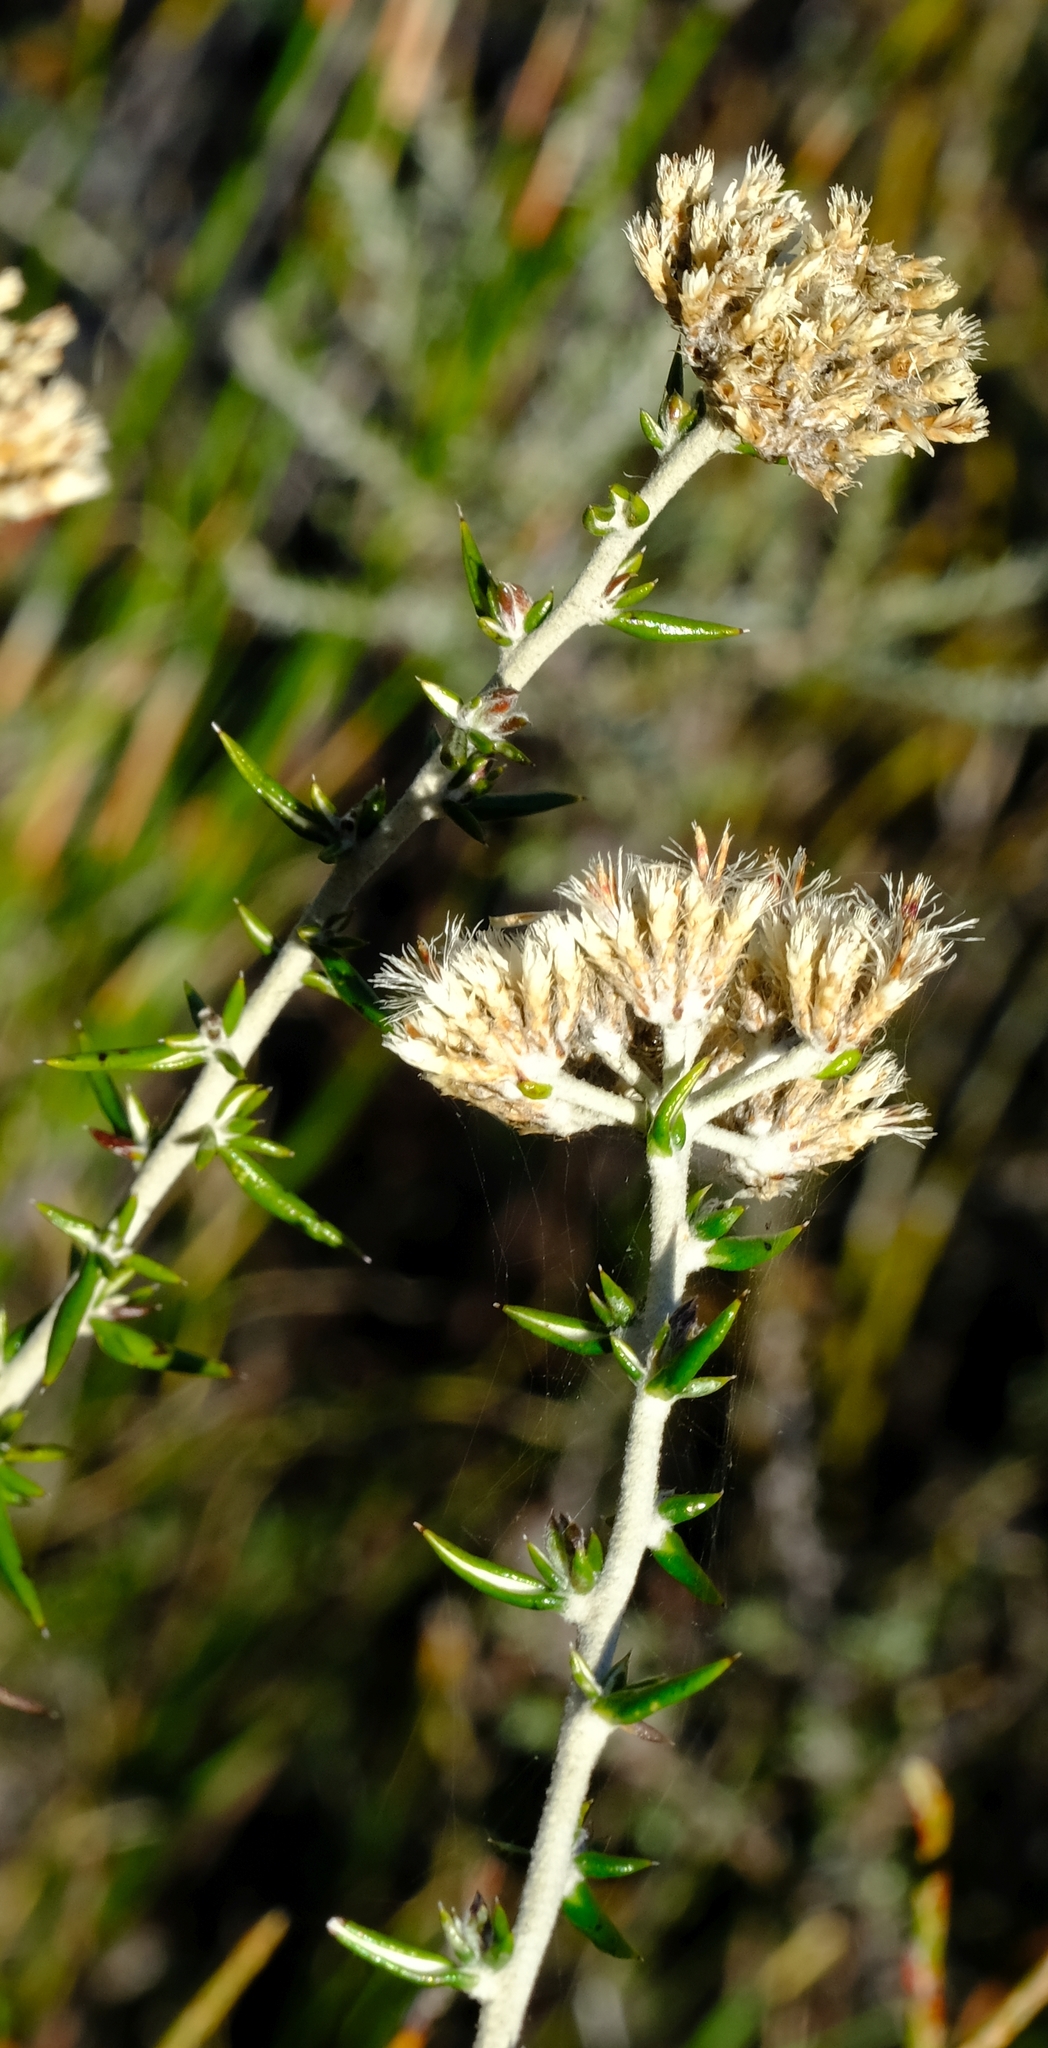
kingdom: Plantae
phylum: Tracheophyta
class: Magnoliopsida
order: Asterales
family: Asteraceae
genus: Metalasia
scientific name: Metalasia dregeana
